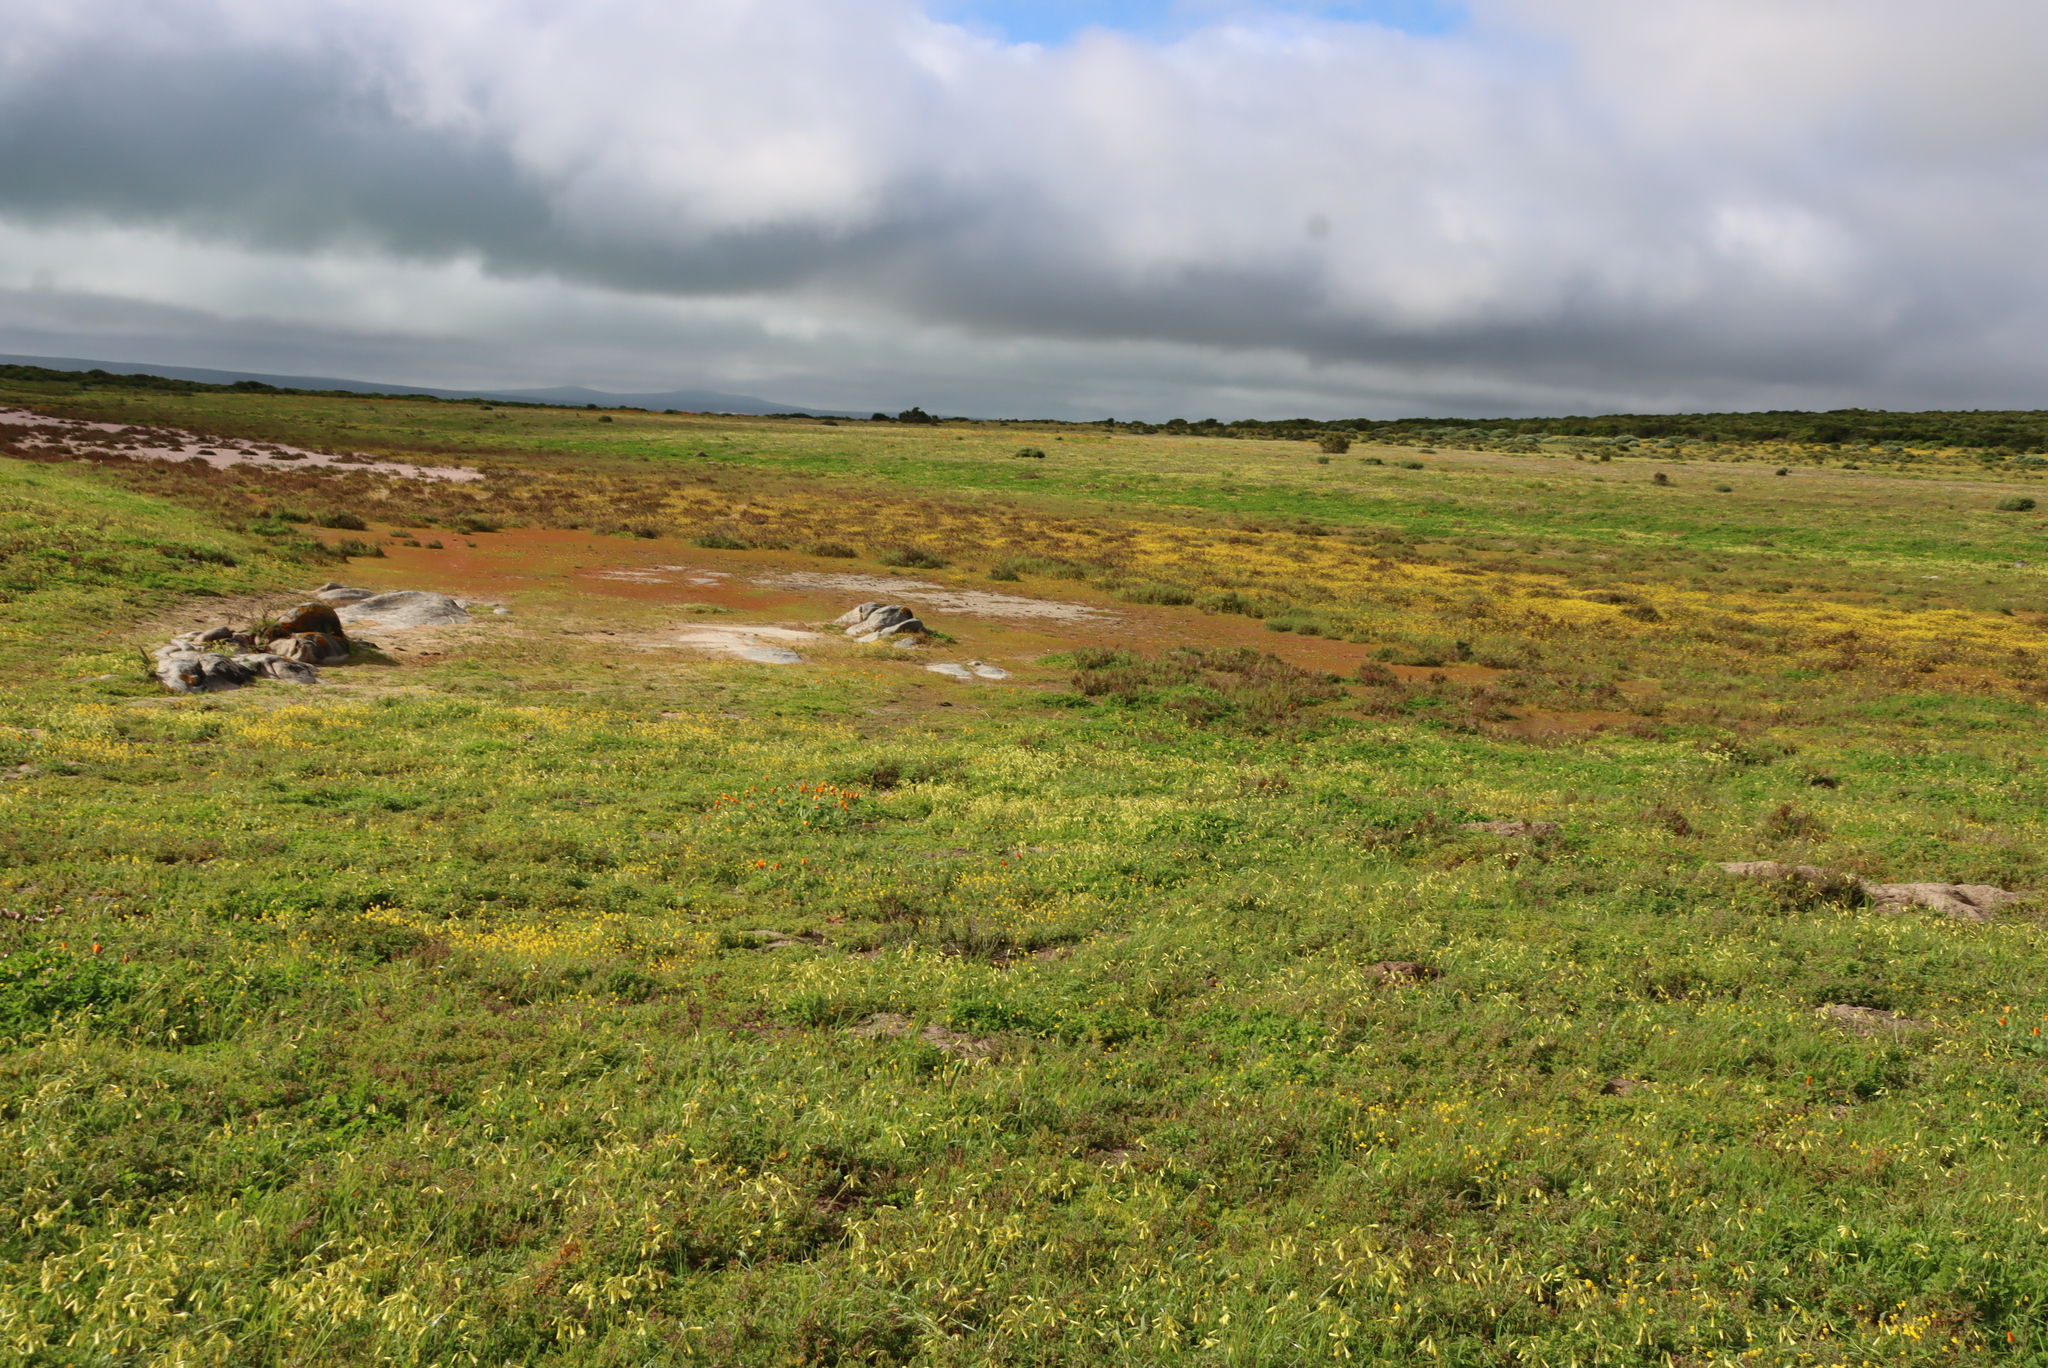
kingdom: Plantae
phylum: Tracheophyta
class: Magnoliopsida
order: Oxalidales
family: Oxalidaceae
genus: Oxalis
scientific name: Oxalis pes-caprae
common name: Bermuda-buttercup
